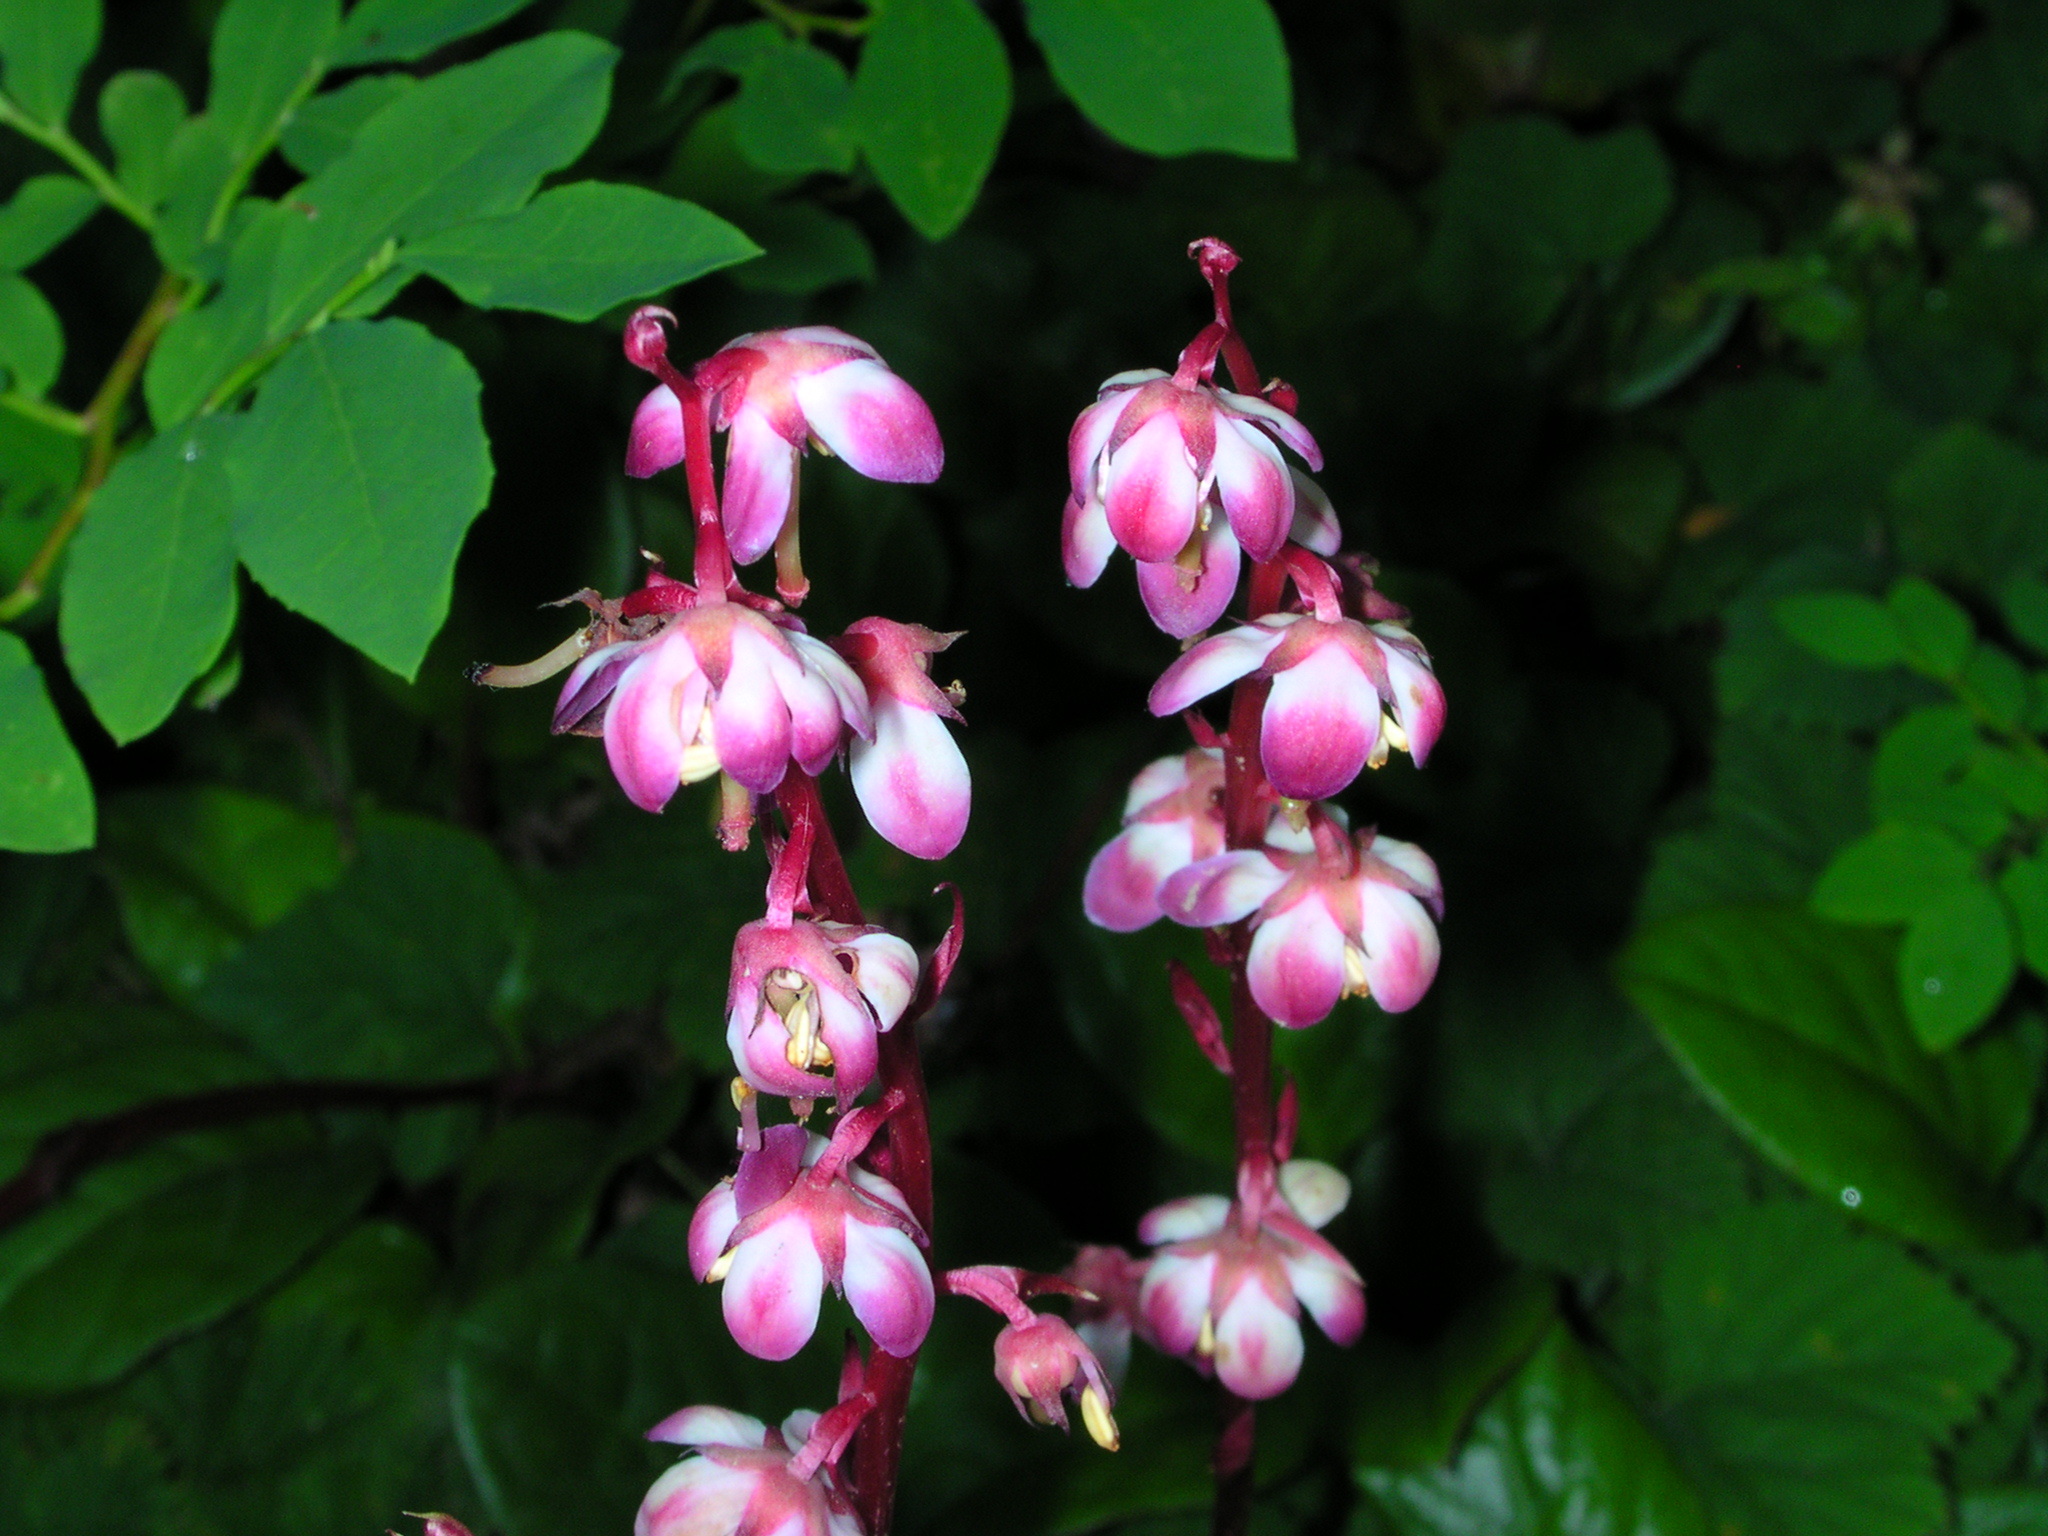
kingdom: Plantae
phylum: Tracheophyta
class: Magnoliopsida
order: Ericales
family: Ericaceae
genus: Pyrola
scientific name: Pyrola asarifolia
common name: Bog wintergreen
